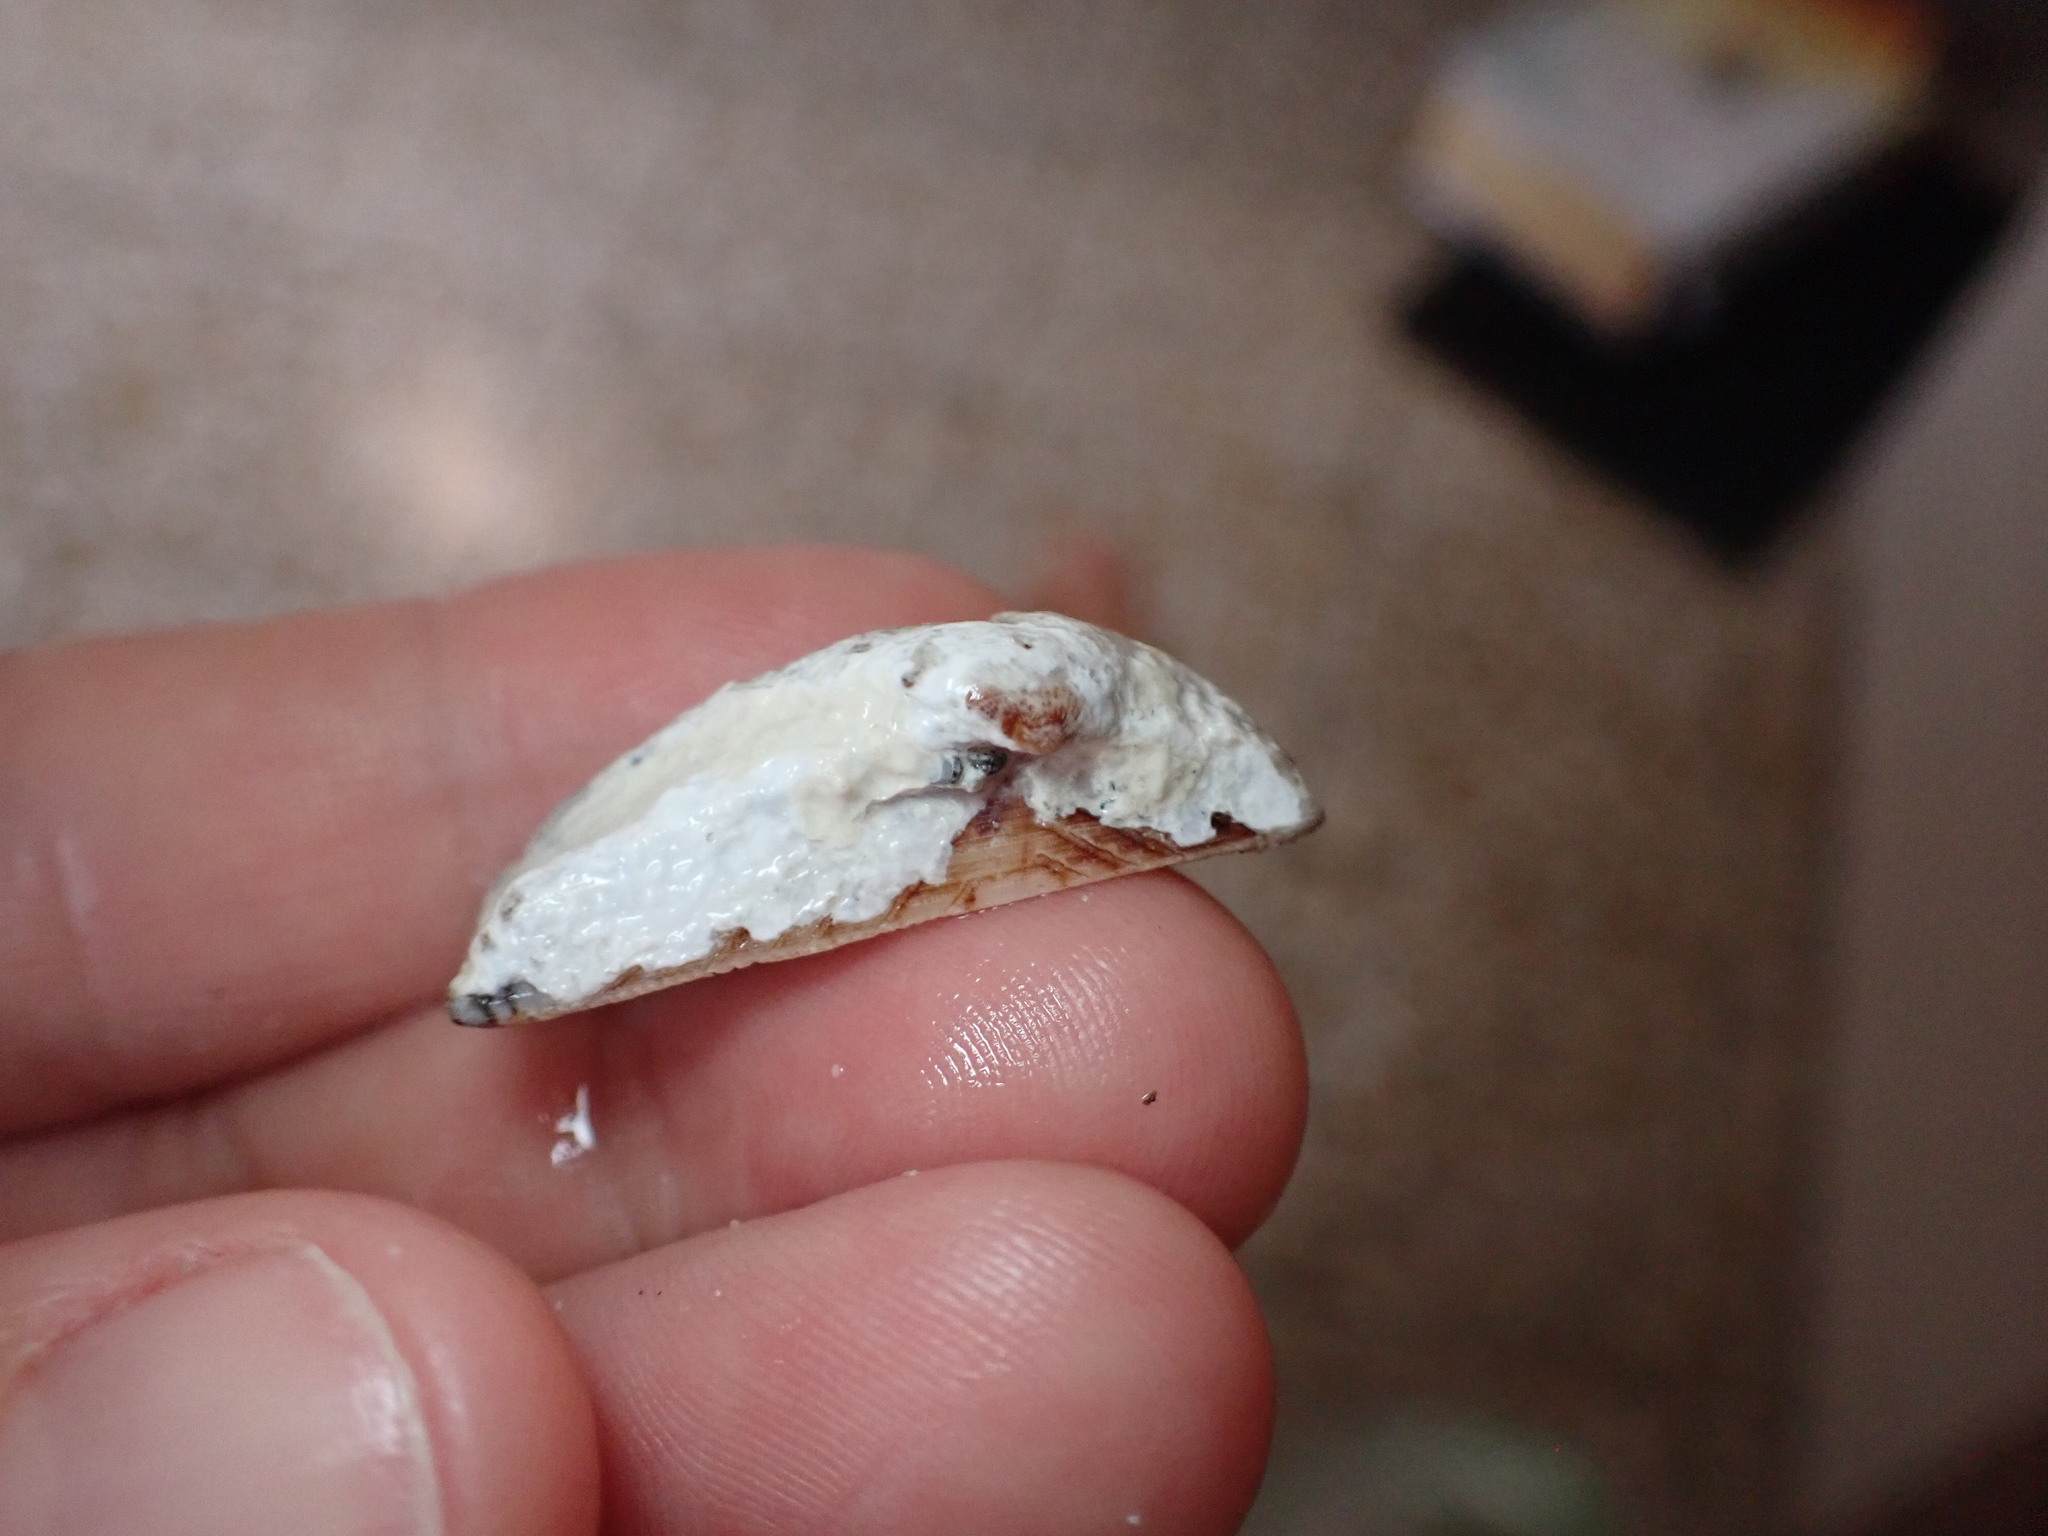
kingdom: Animalia
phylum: Mollusca
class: Bivalvia
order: Arcida
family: Arcidae
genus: Arca
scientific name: Arca noae
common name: Noah's arch
